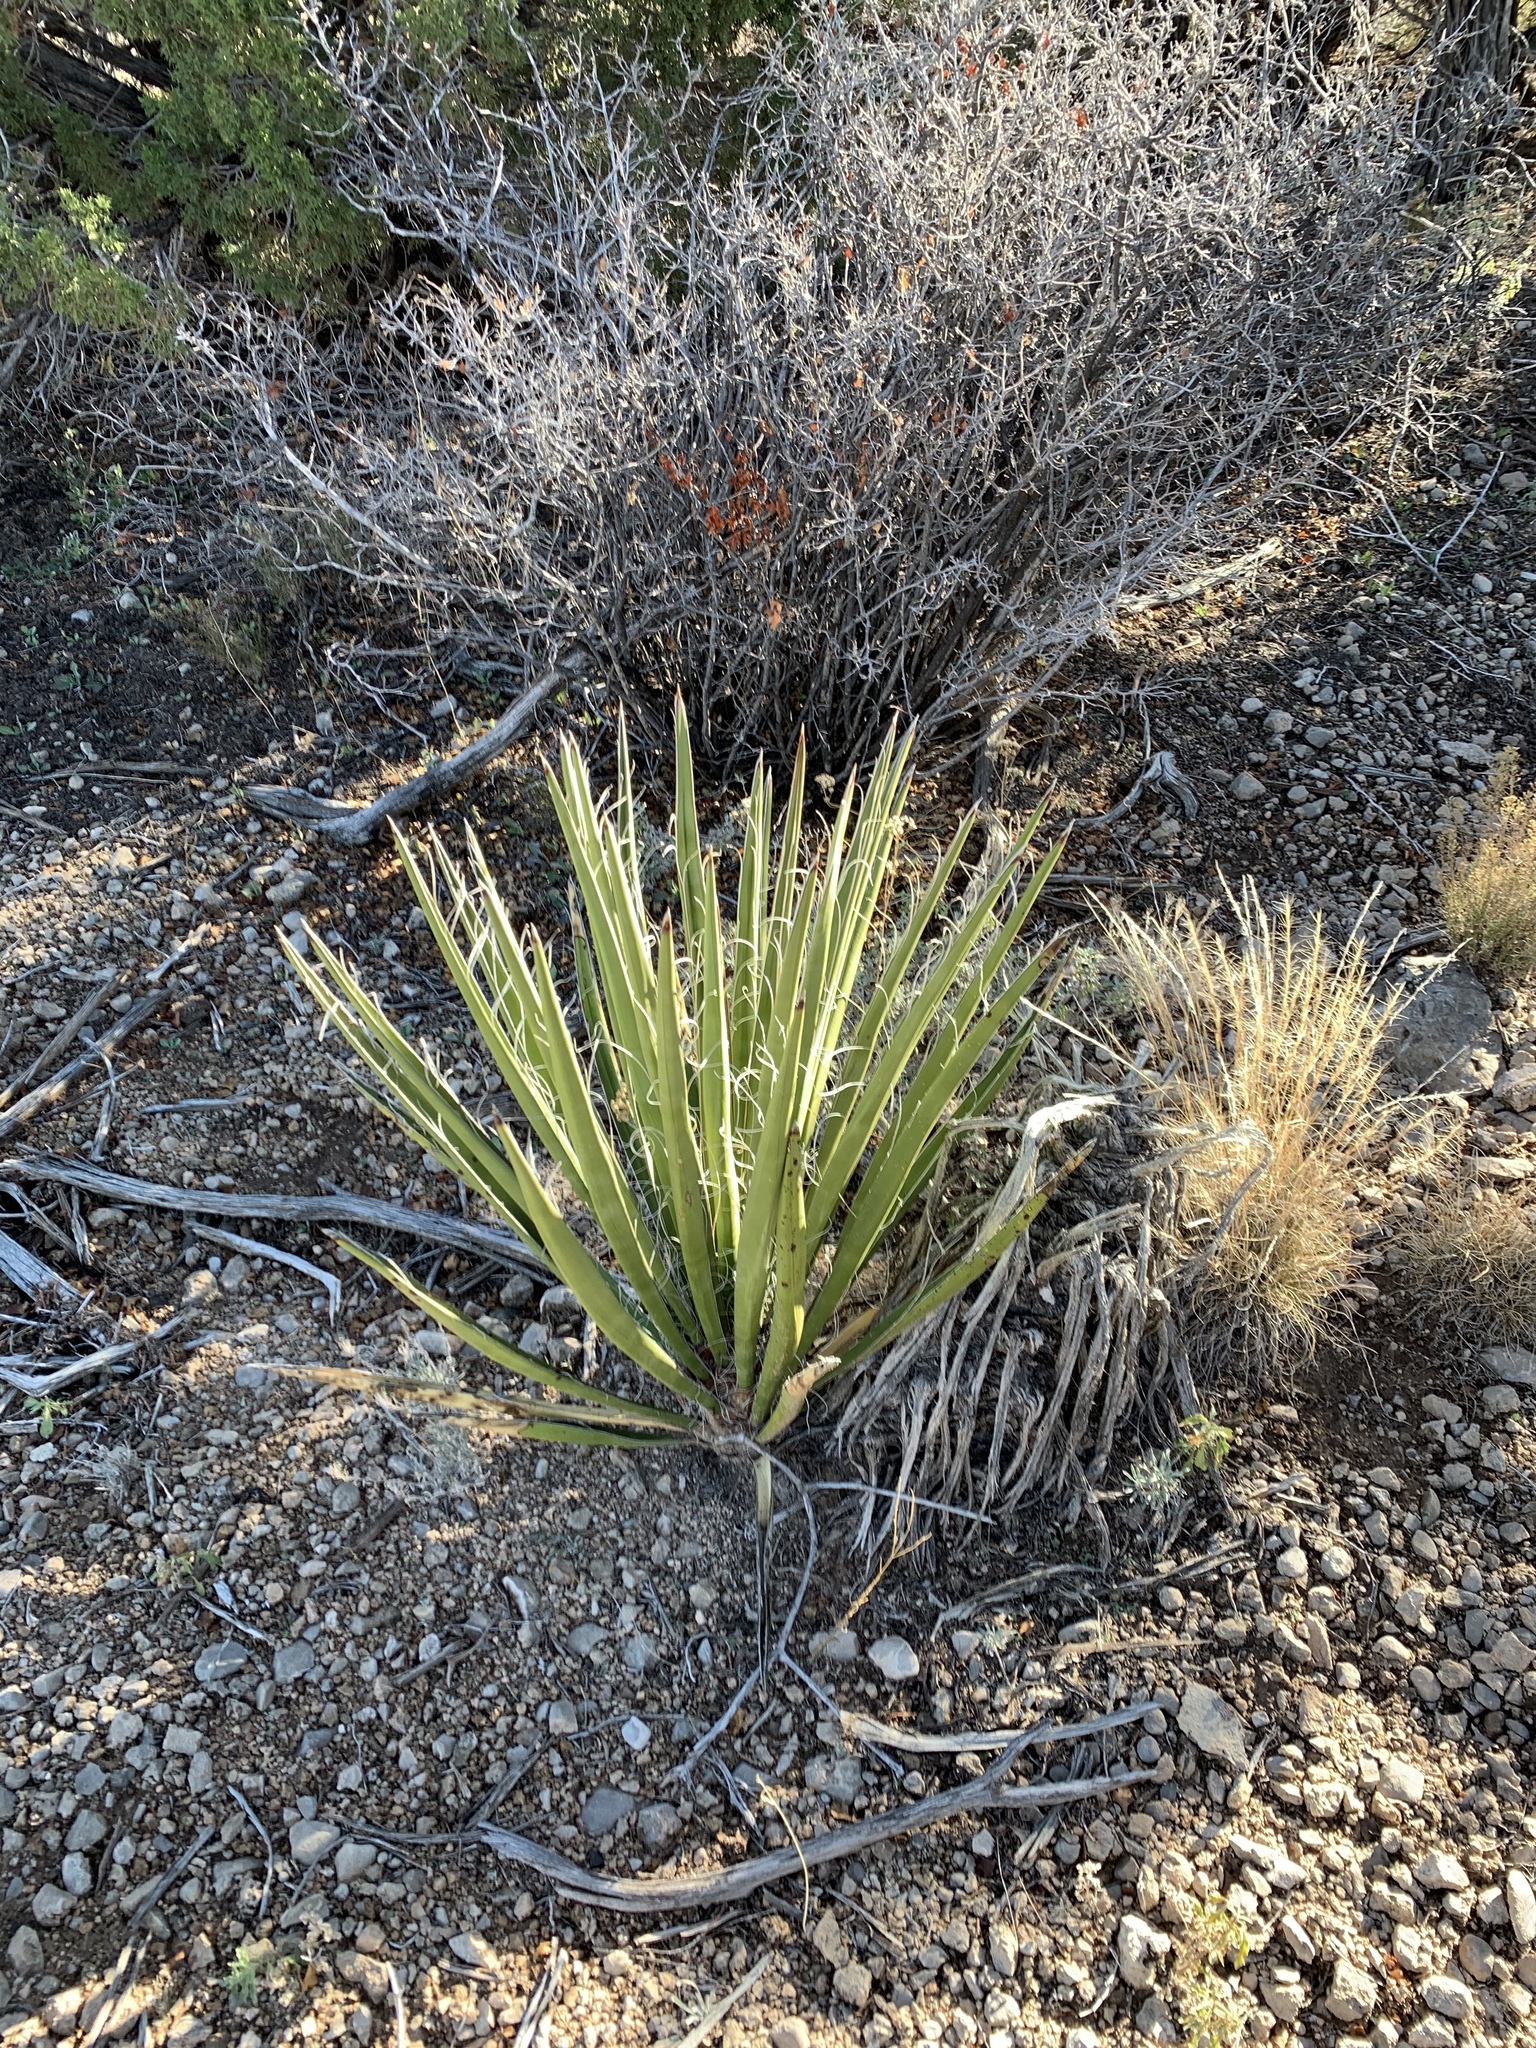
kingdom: Plantae
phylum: Tracheophyta
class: Liliopsida
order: Asparagales
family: Asparagaceae
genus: Yucca
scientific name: Yucca baccata
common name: Banana yucca
